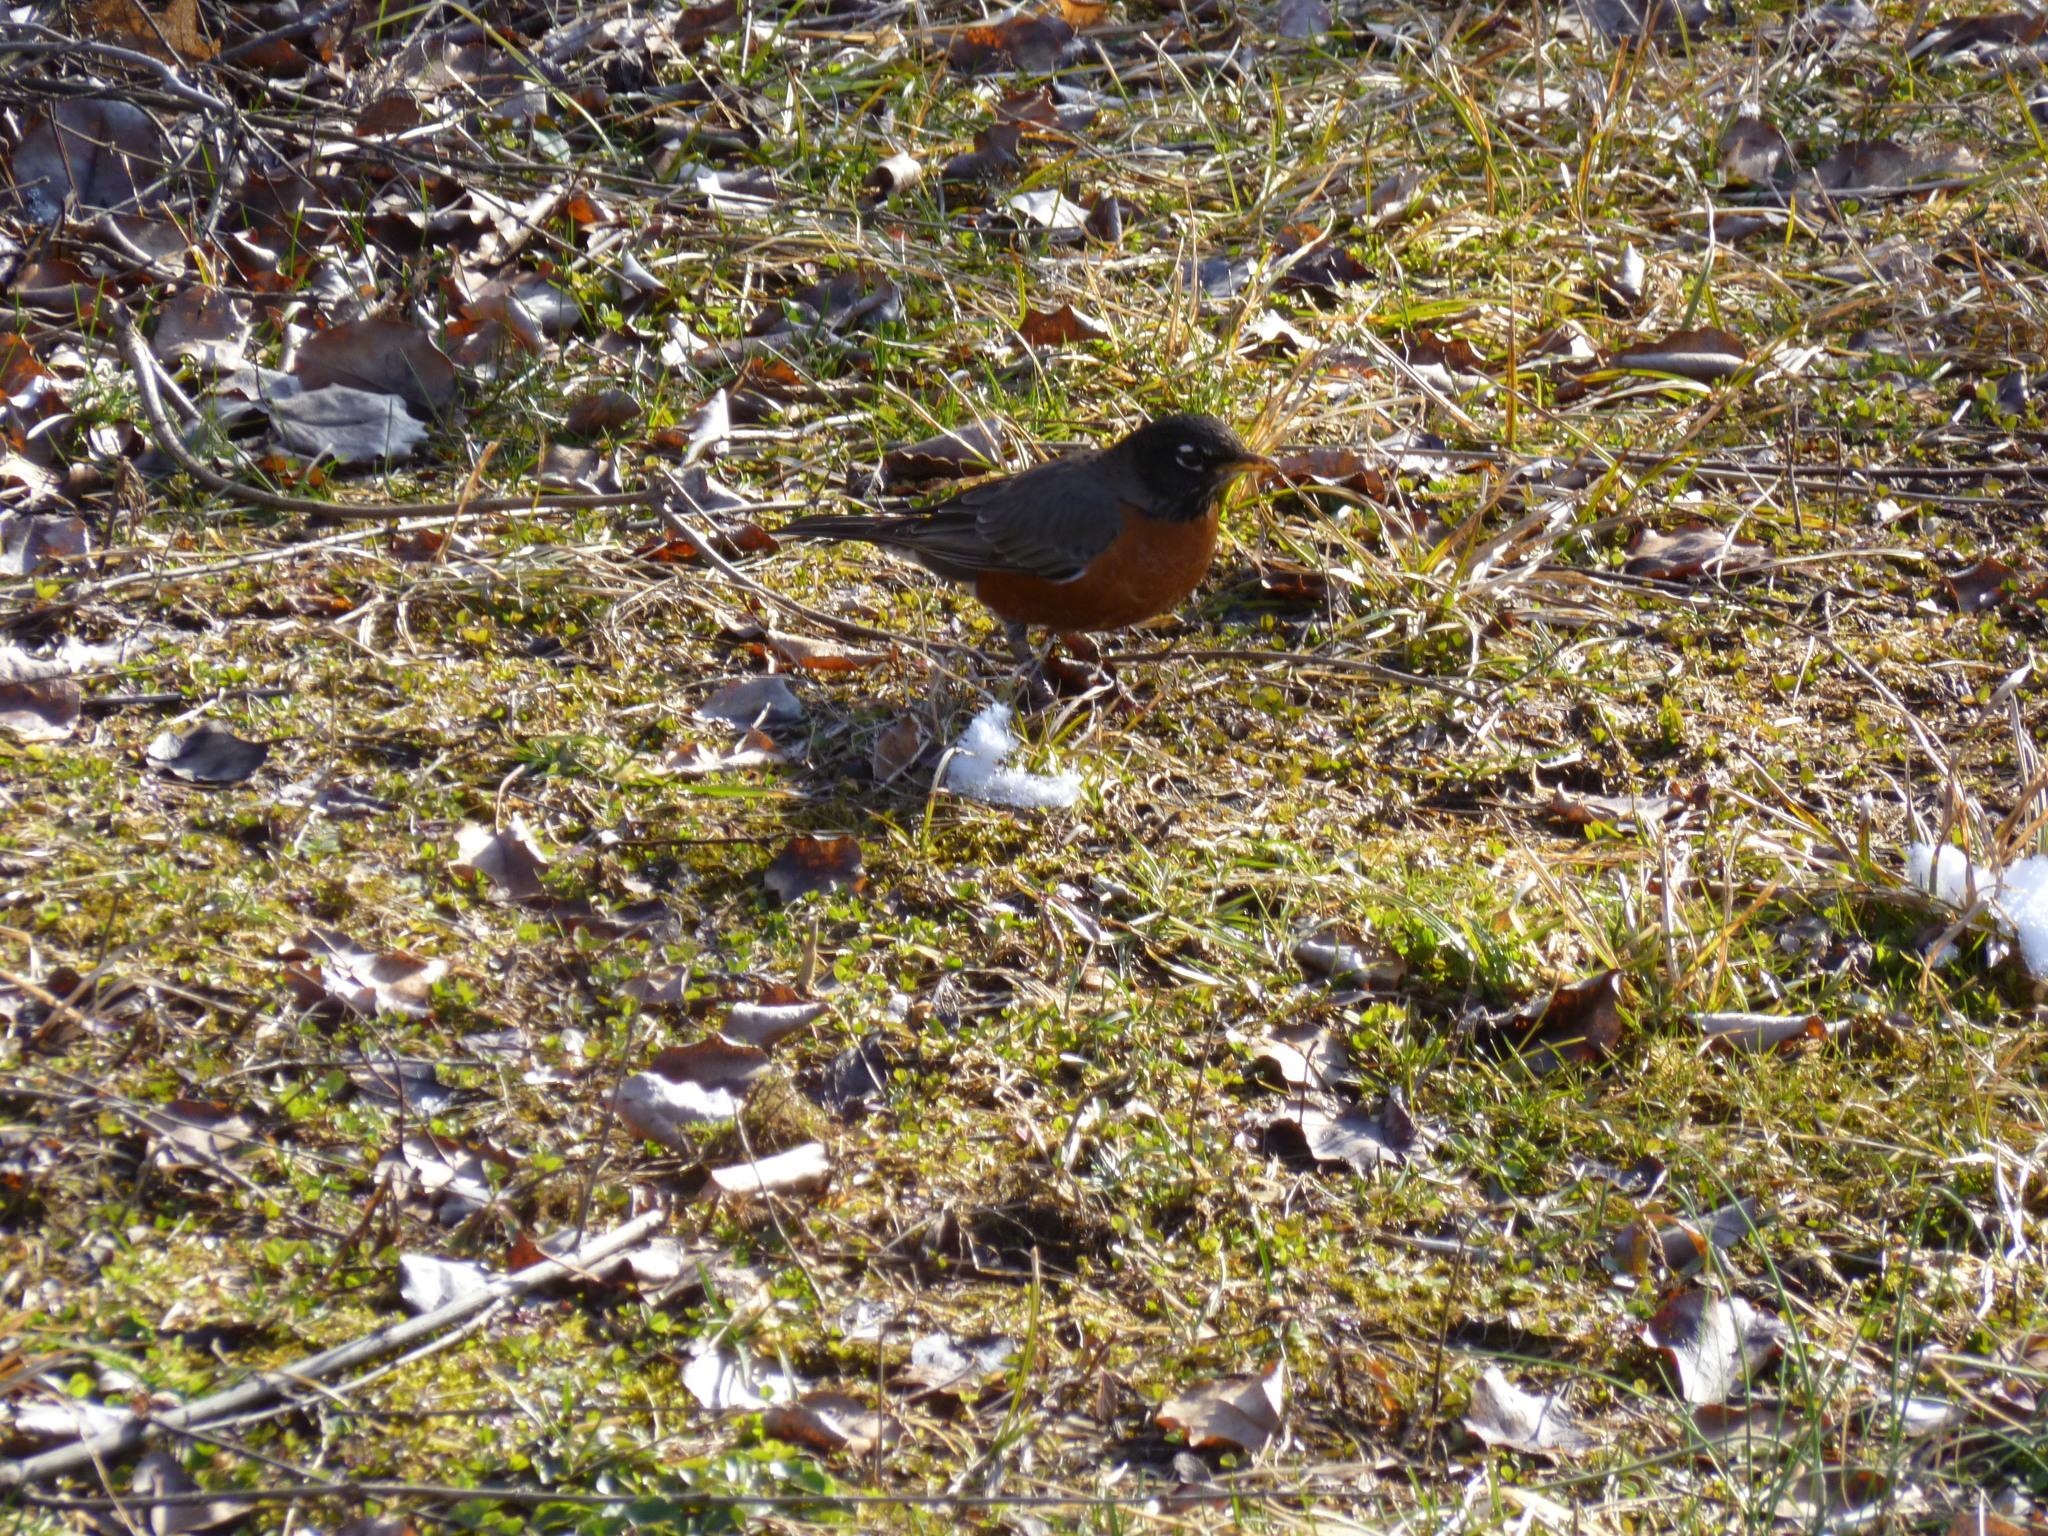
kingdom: Animalia
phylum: Chordata
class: Aves
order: Passeriformes
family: Turdidae
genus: Turdus
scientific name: Turdus migratorius
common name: American robin
